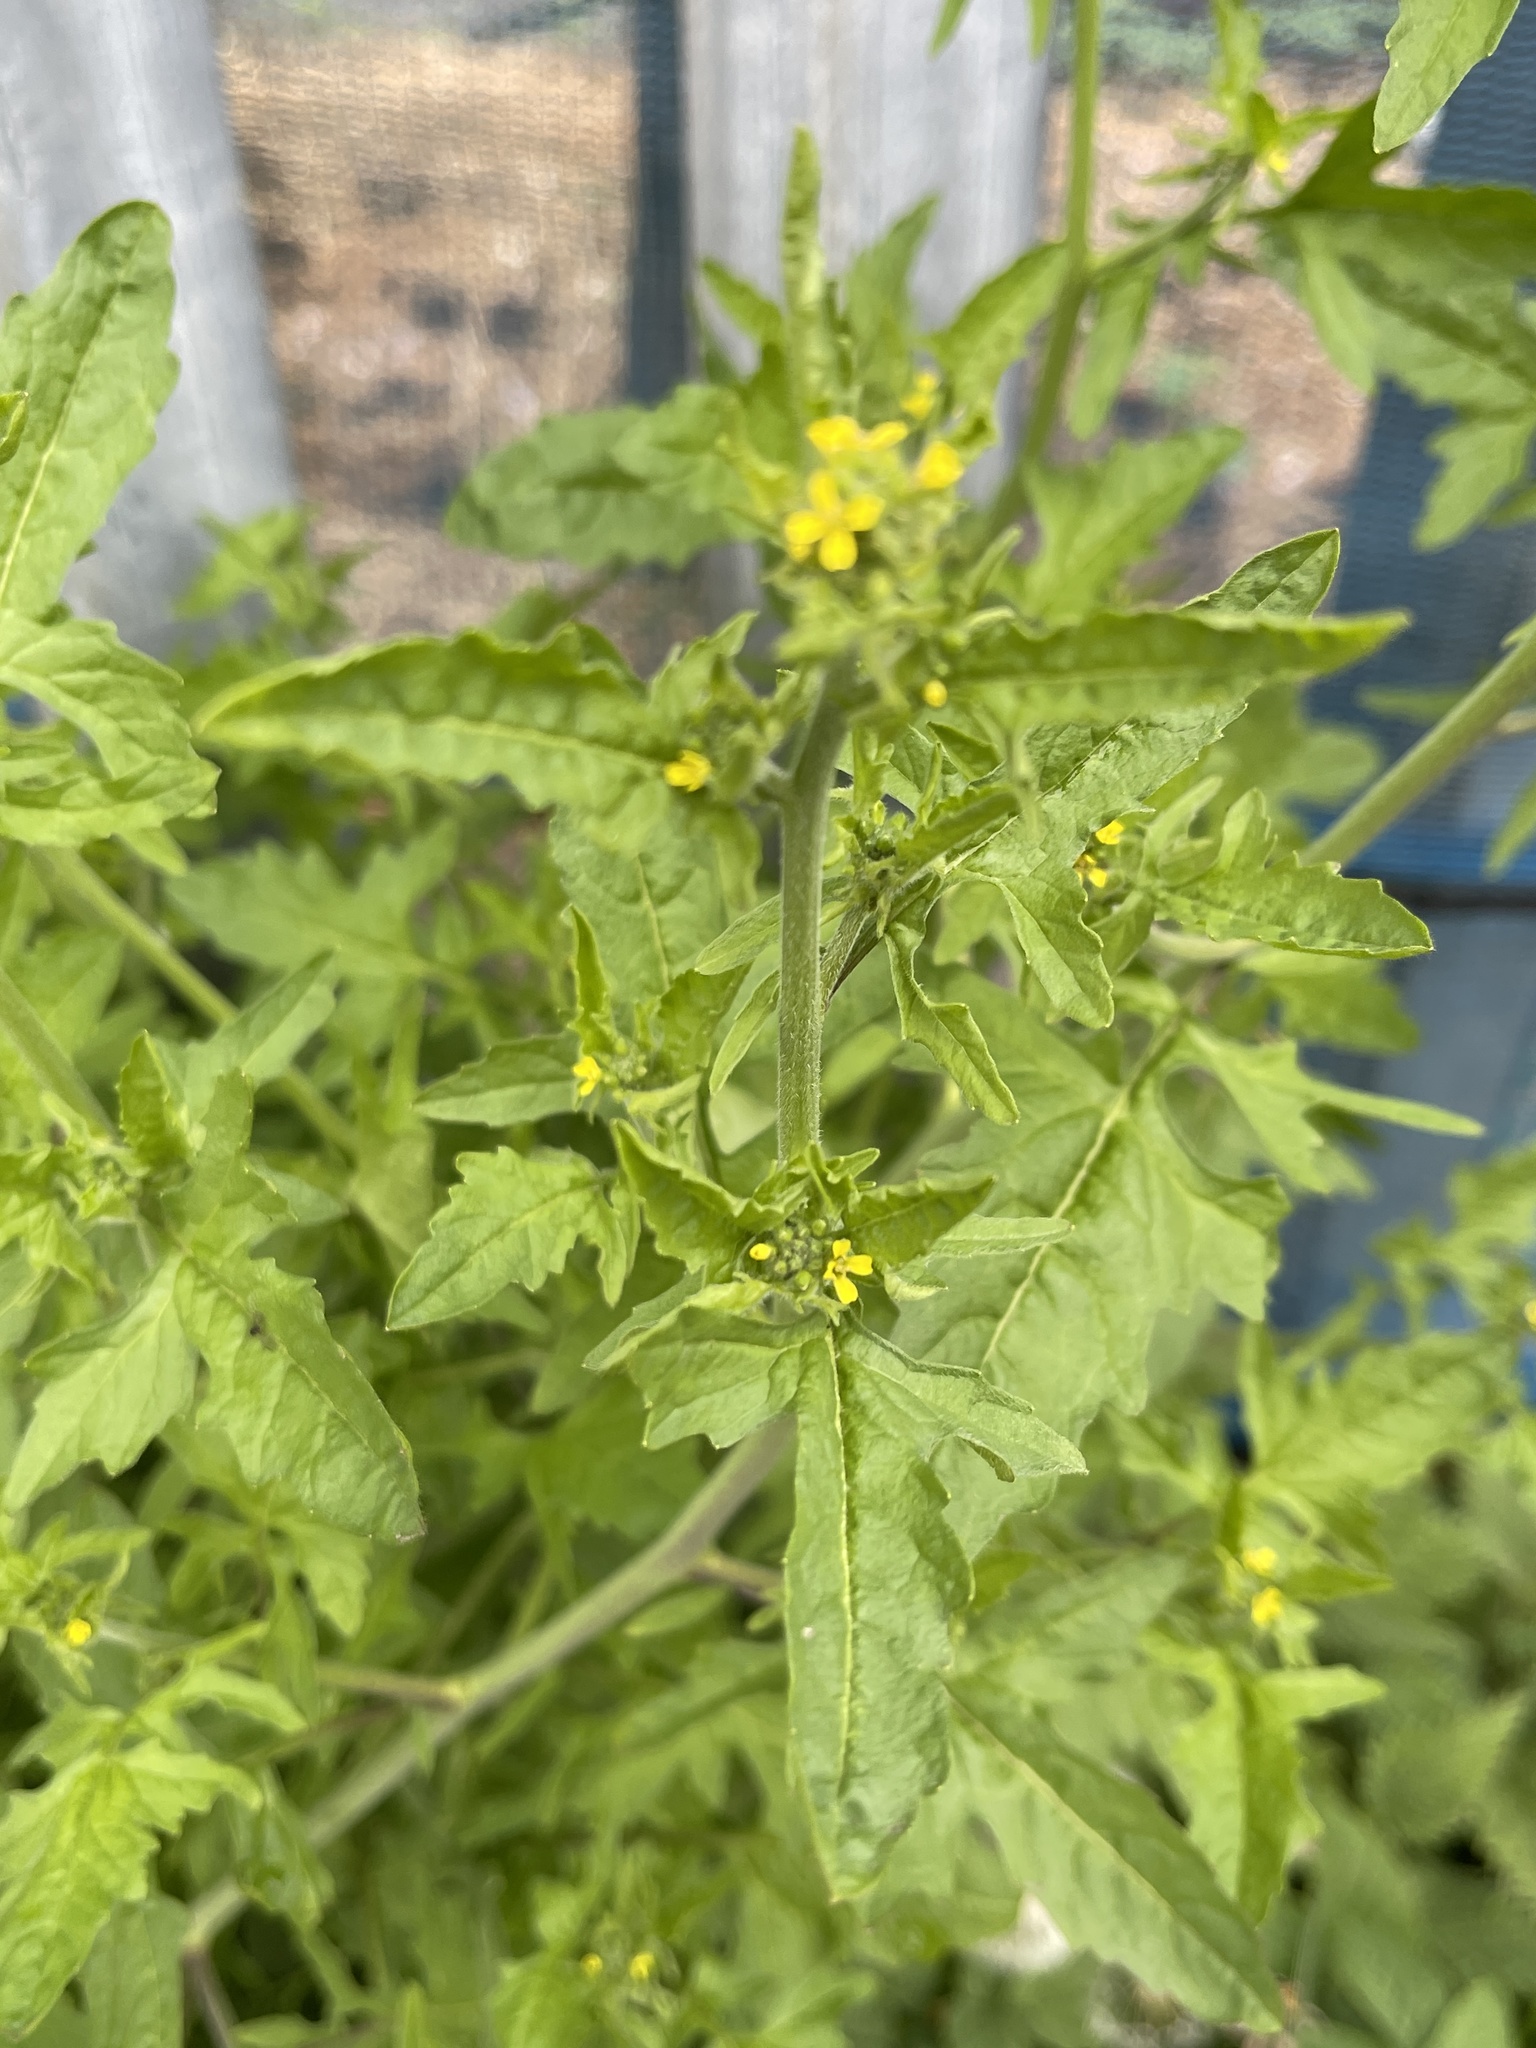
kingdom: Plantae
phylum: Tracheophyta
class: Magnoliopsida
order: Brassicales
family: Brassicaceae
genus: Sisymbrium
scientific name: Sisymbrium officinale
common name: Hedge mustard
